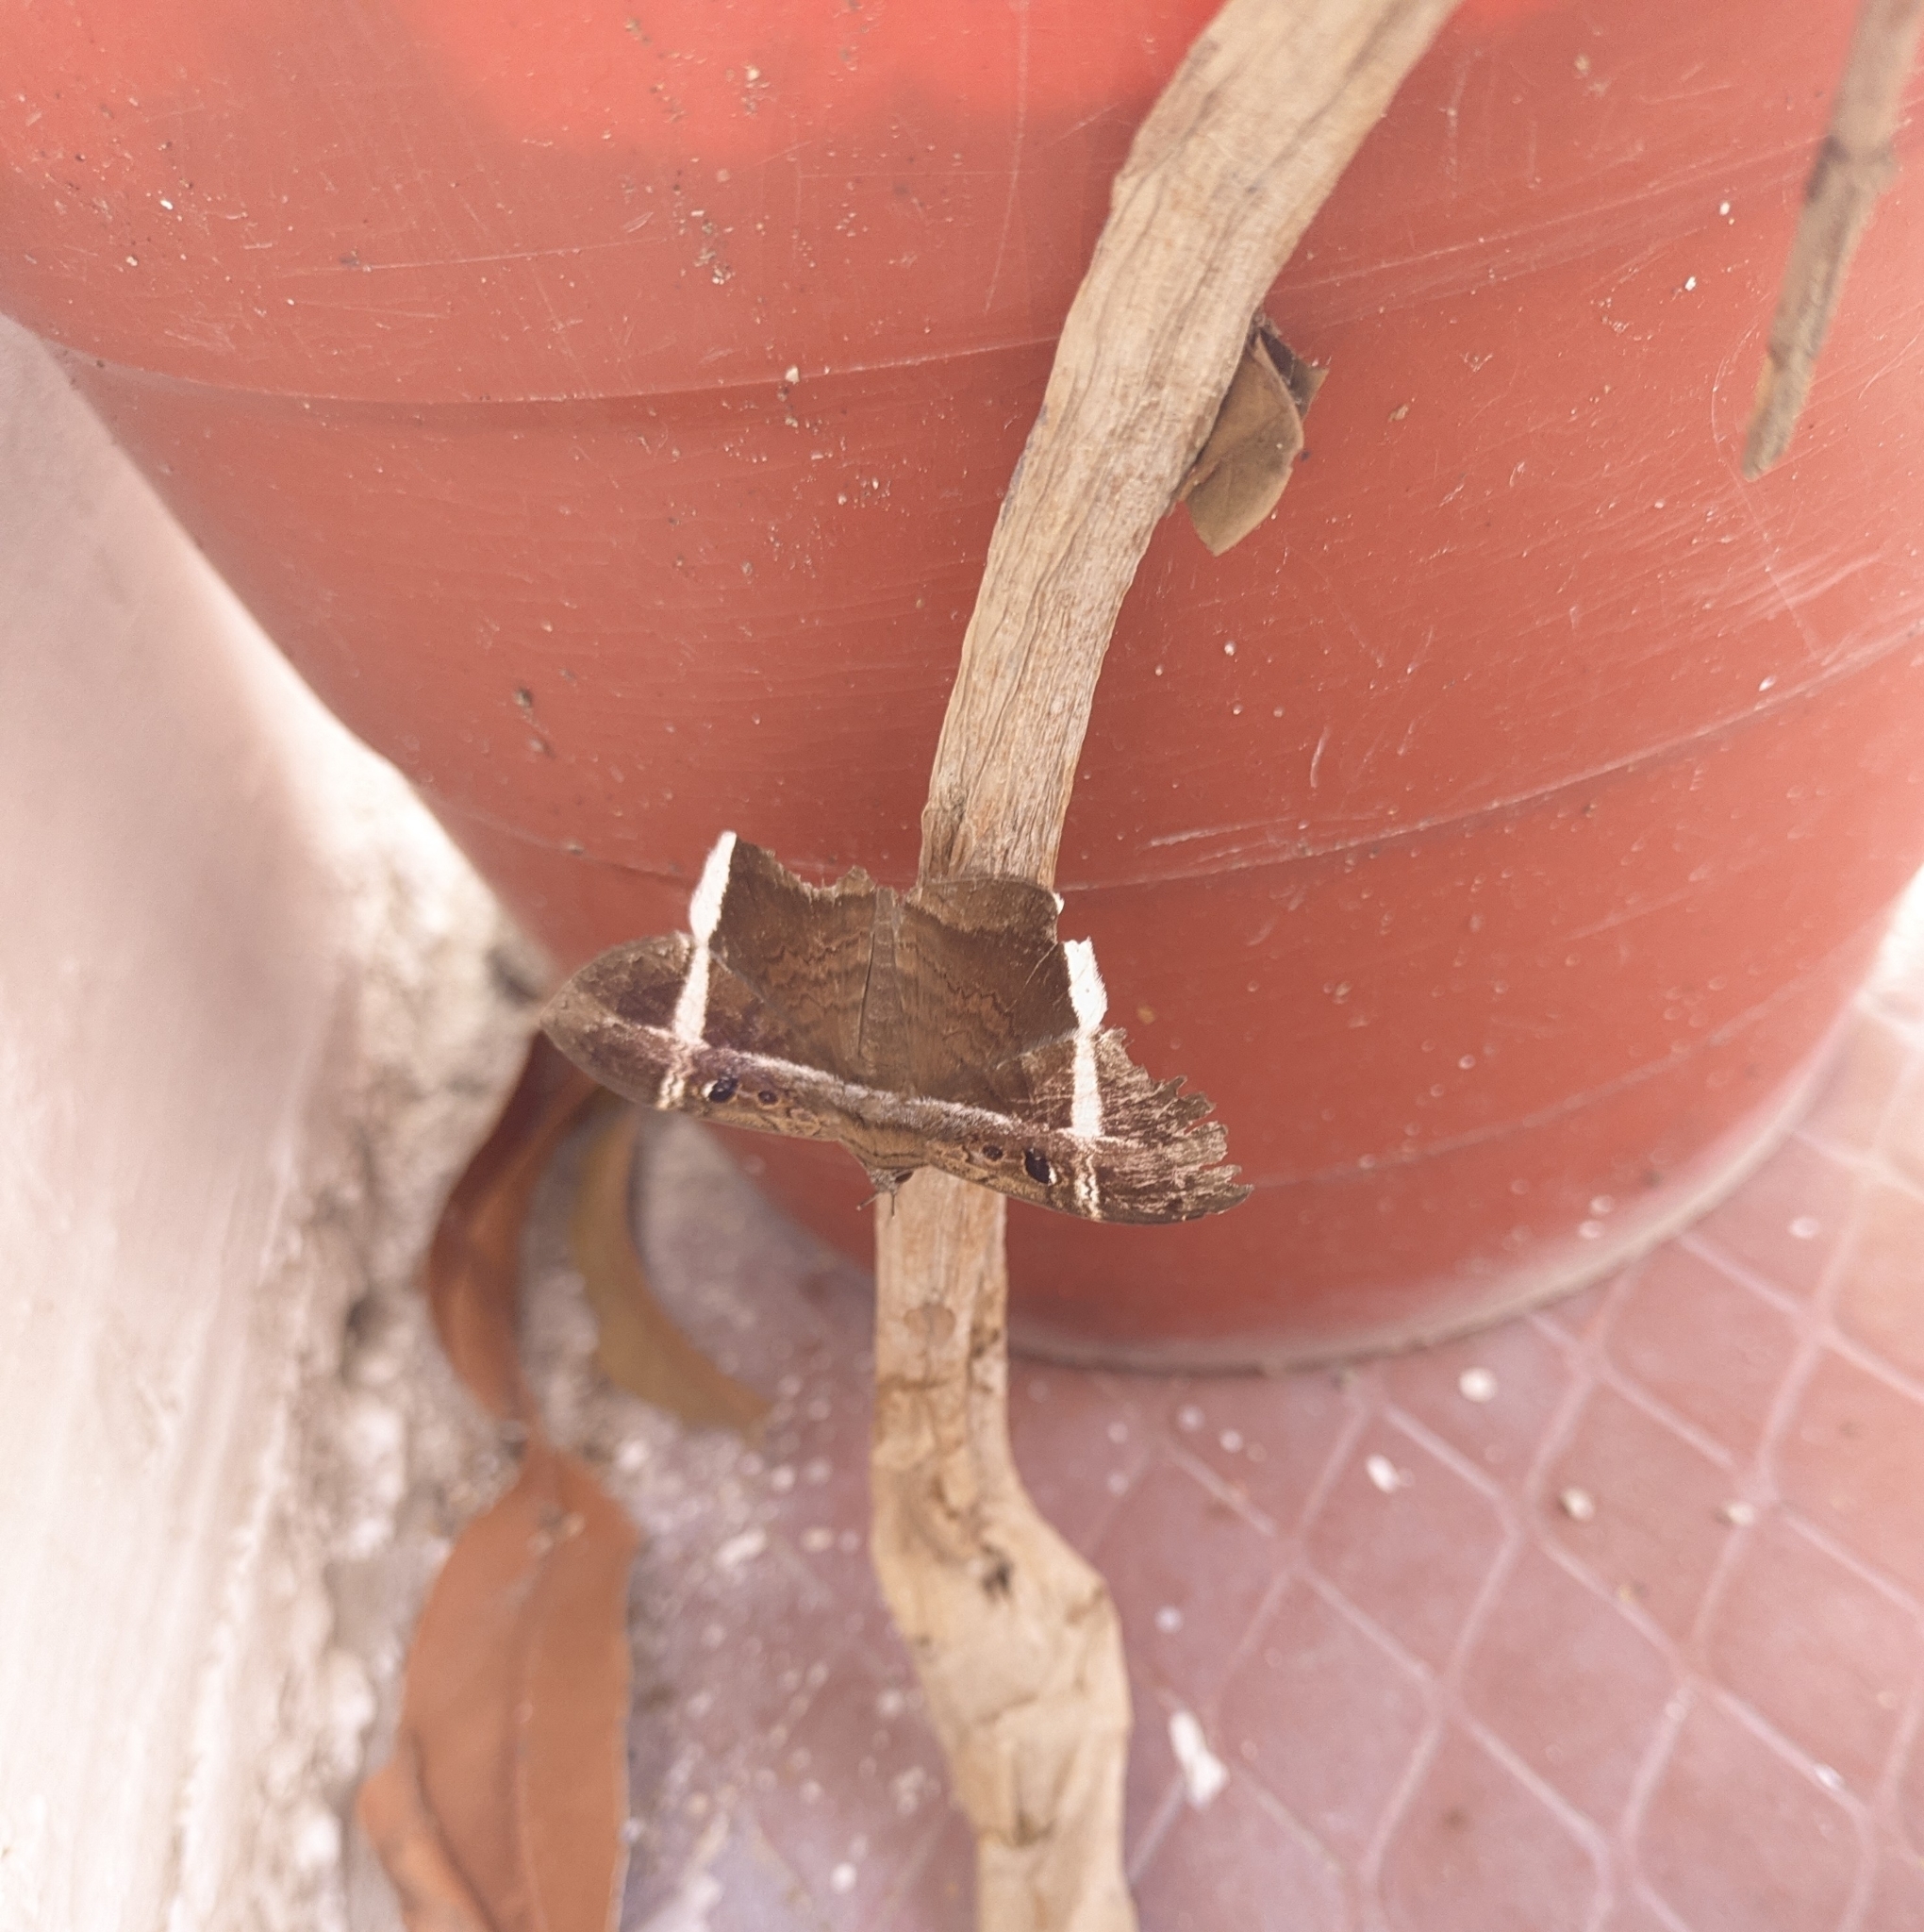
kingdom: Animalia
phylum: Arthropoda
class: Insecta
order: Lepidoptera
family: Erebidae
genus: Hemeroblemma
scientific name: Hemeroblemma mexicana
